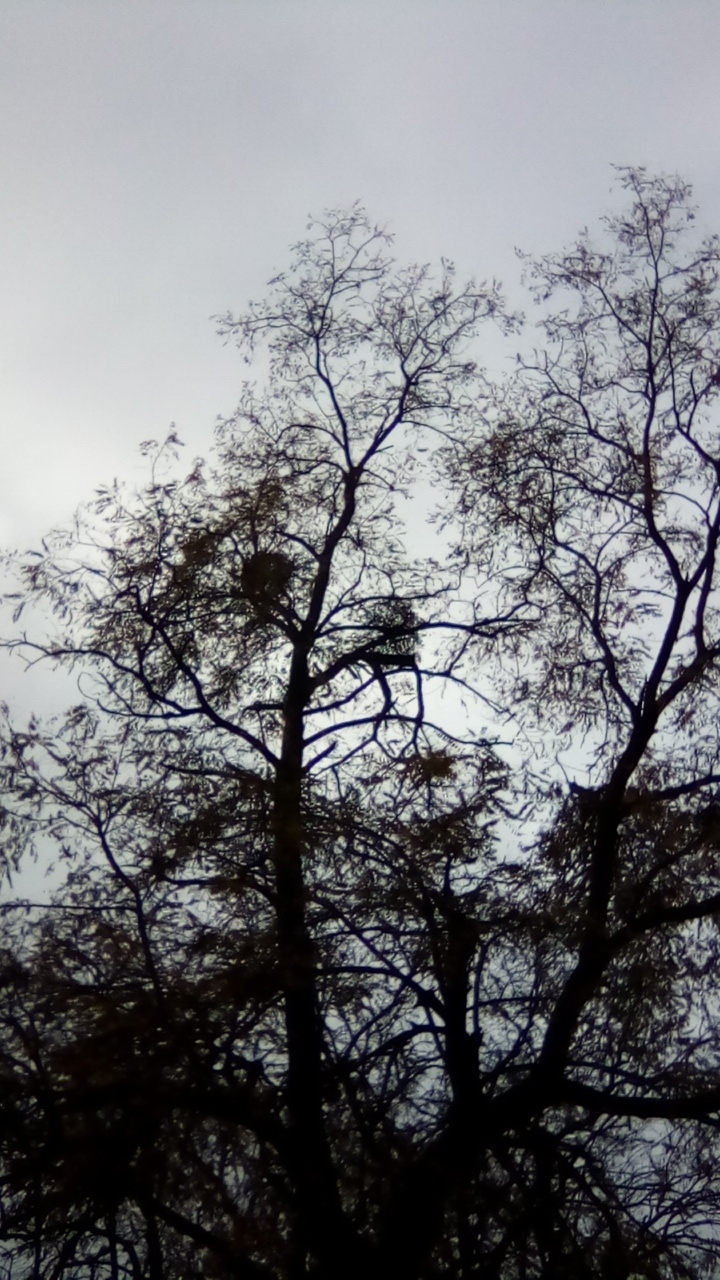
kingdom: Plantae
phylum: Tracheophyta
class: Magnoliopsida
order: Santalales
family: Viscaceae
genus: Viscum
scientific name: Viscum album
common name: Mistletoe
